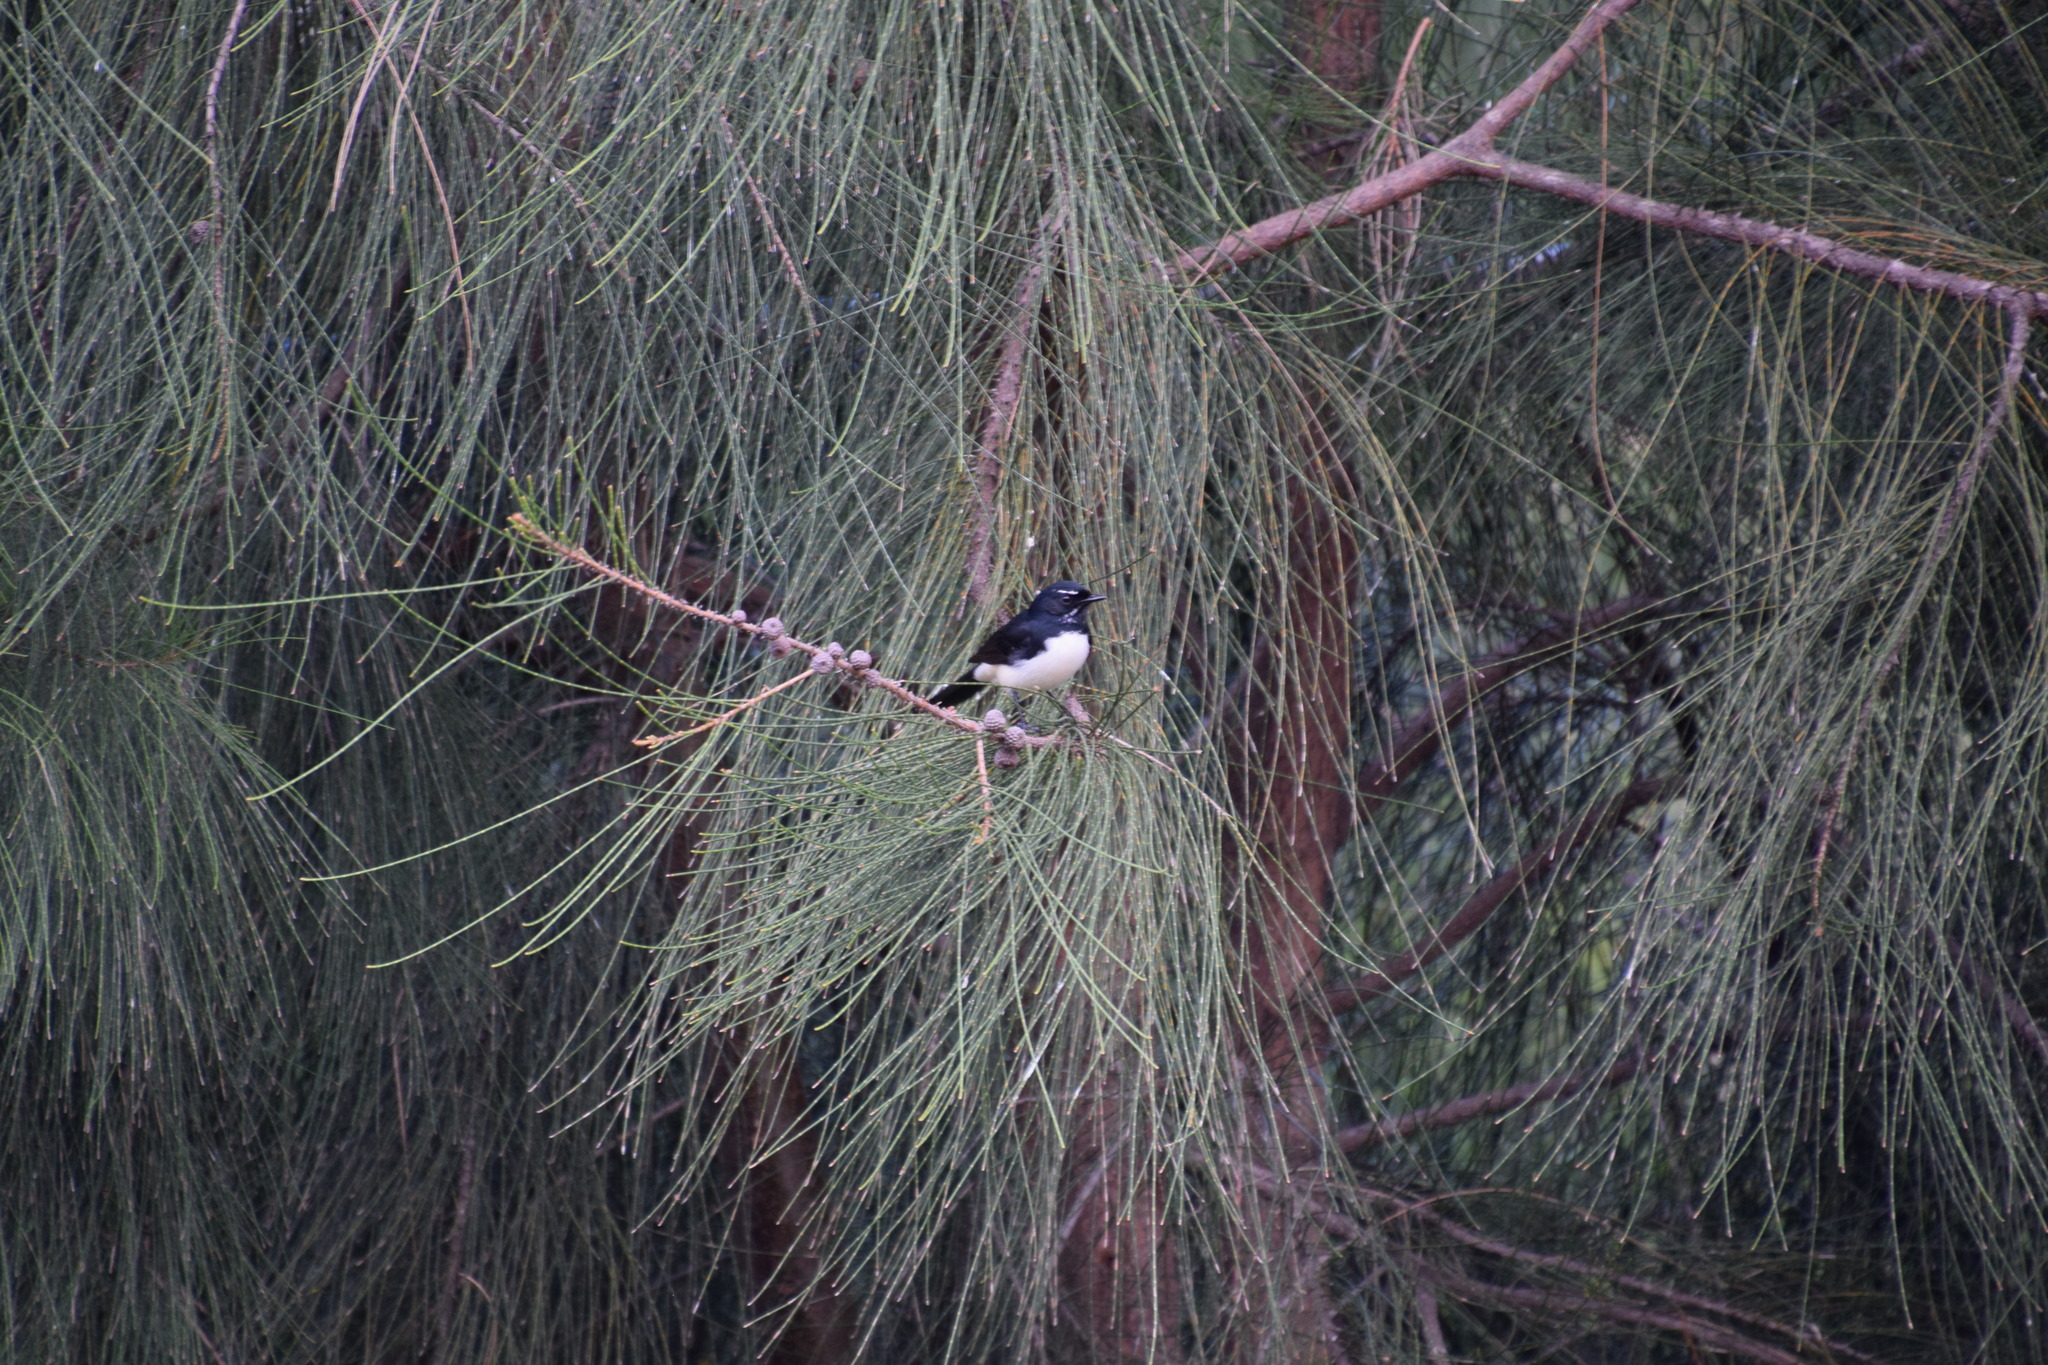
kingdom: Animalia
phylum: Chordata
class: Aves
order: Passeriformes
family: Rhipiduridae
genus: Rhipidura
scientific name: Rhipidura leucophrys
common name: Willie wagtail
